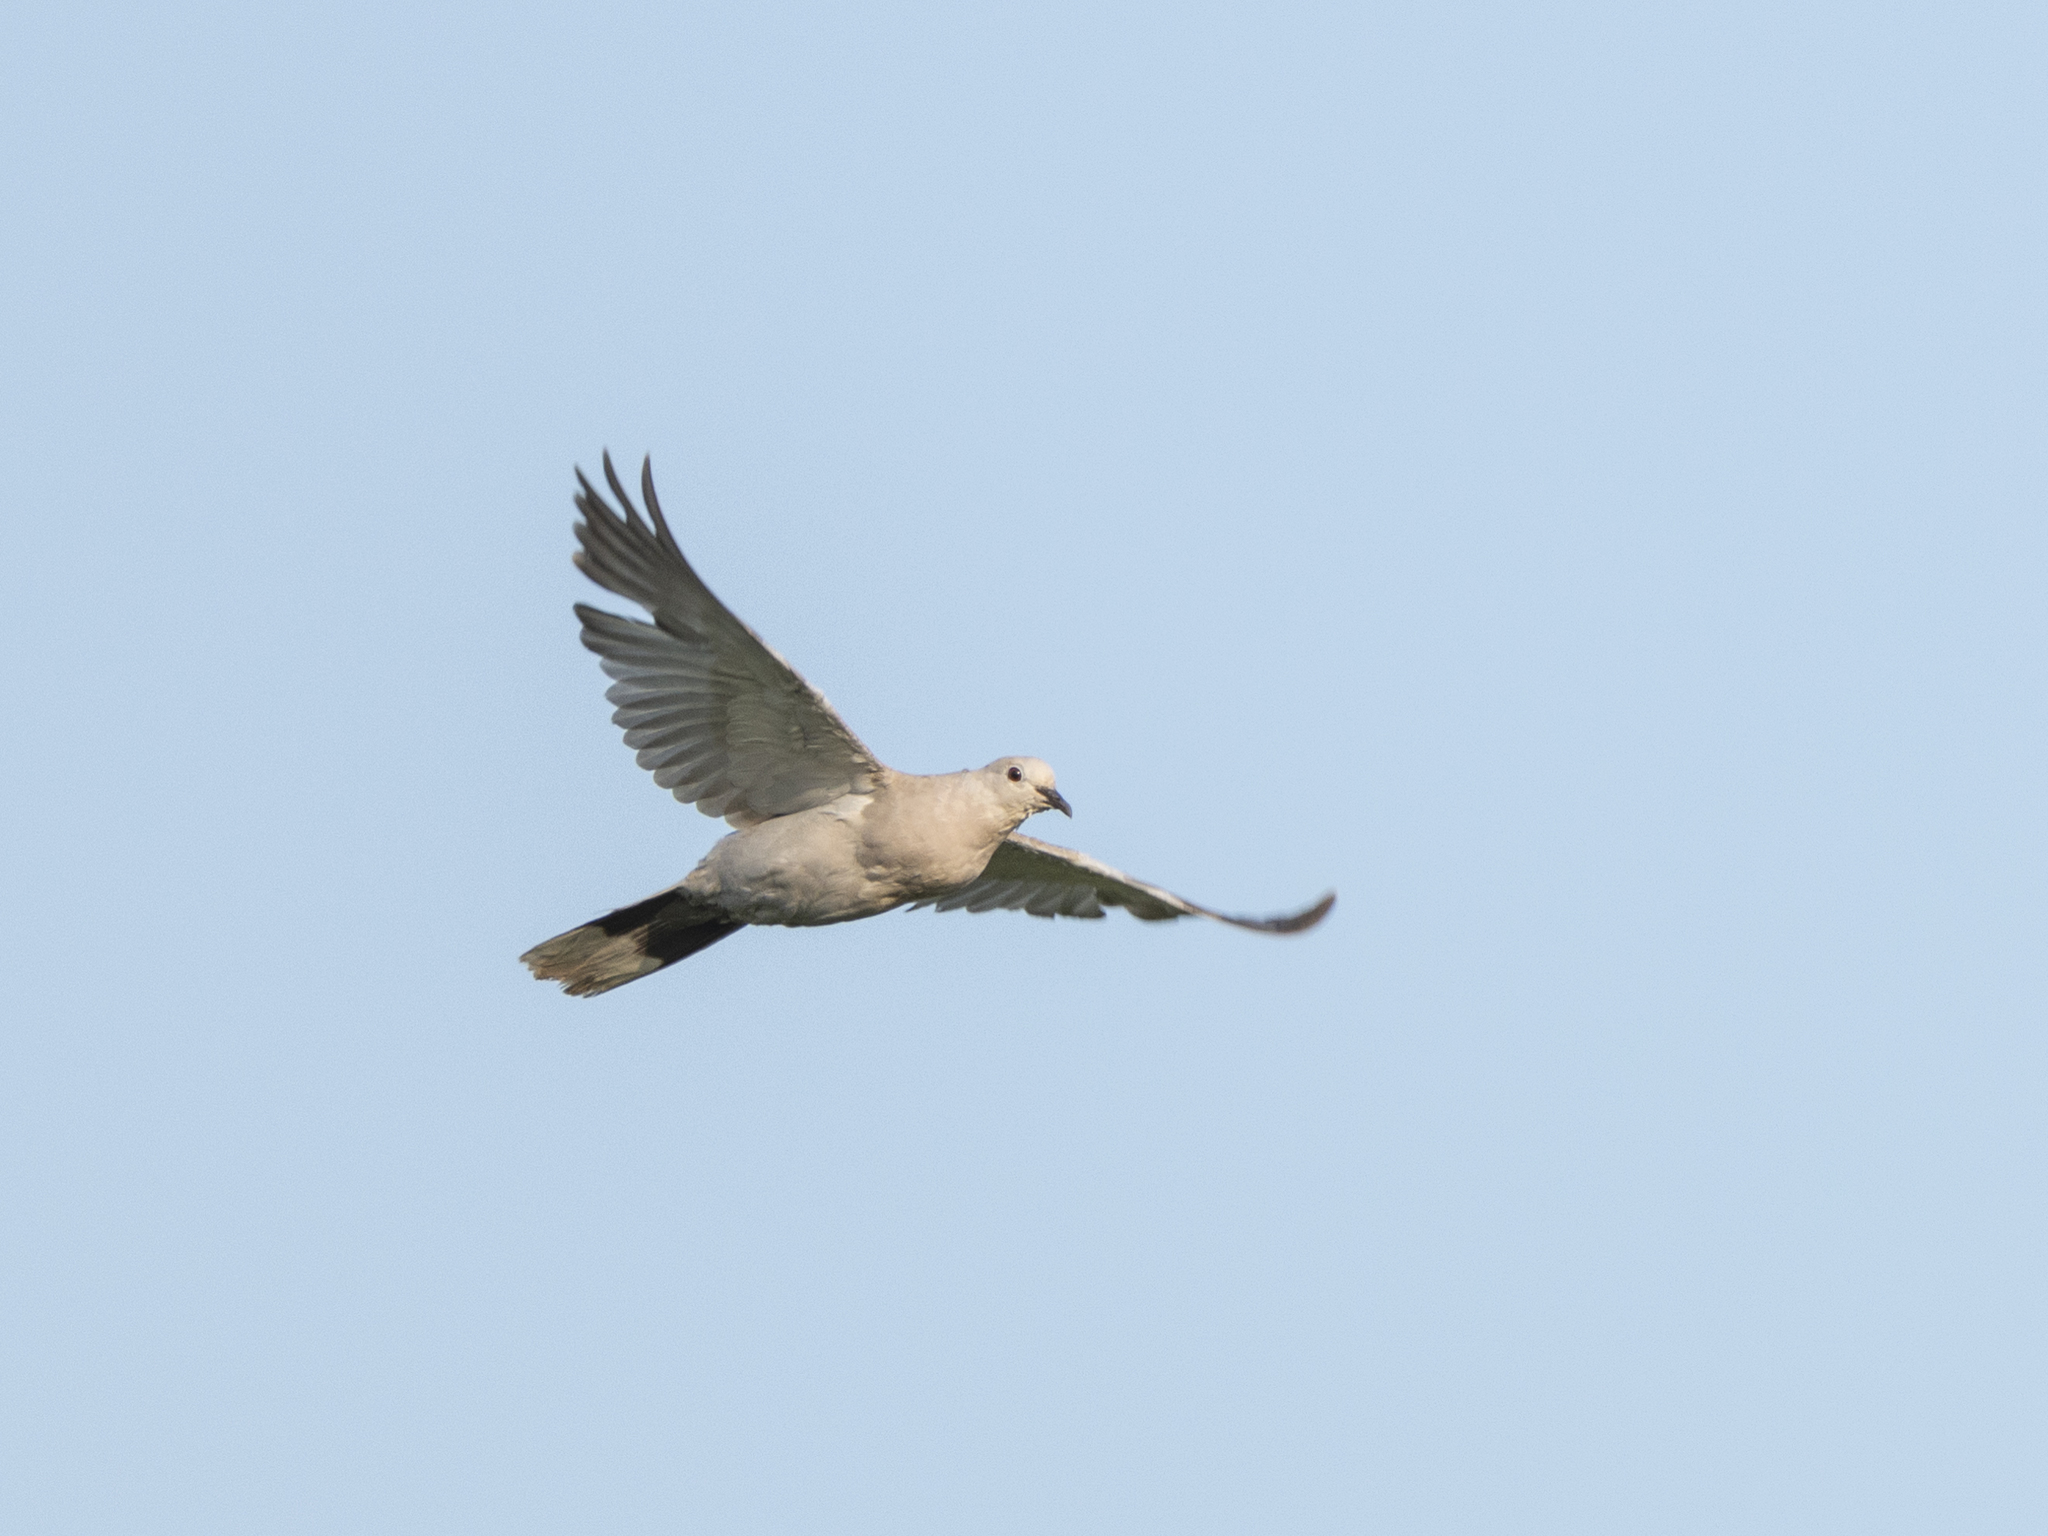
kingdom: Animalia
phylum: Chordata
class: Aves
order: Columbiformes
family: Columbidae
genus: Streptopelia
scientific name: Streptopelia decaocto
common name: Eurasian collared dove
